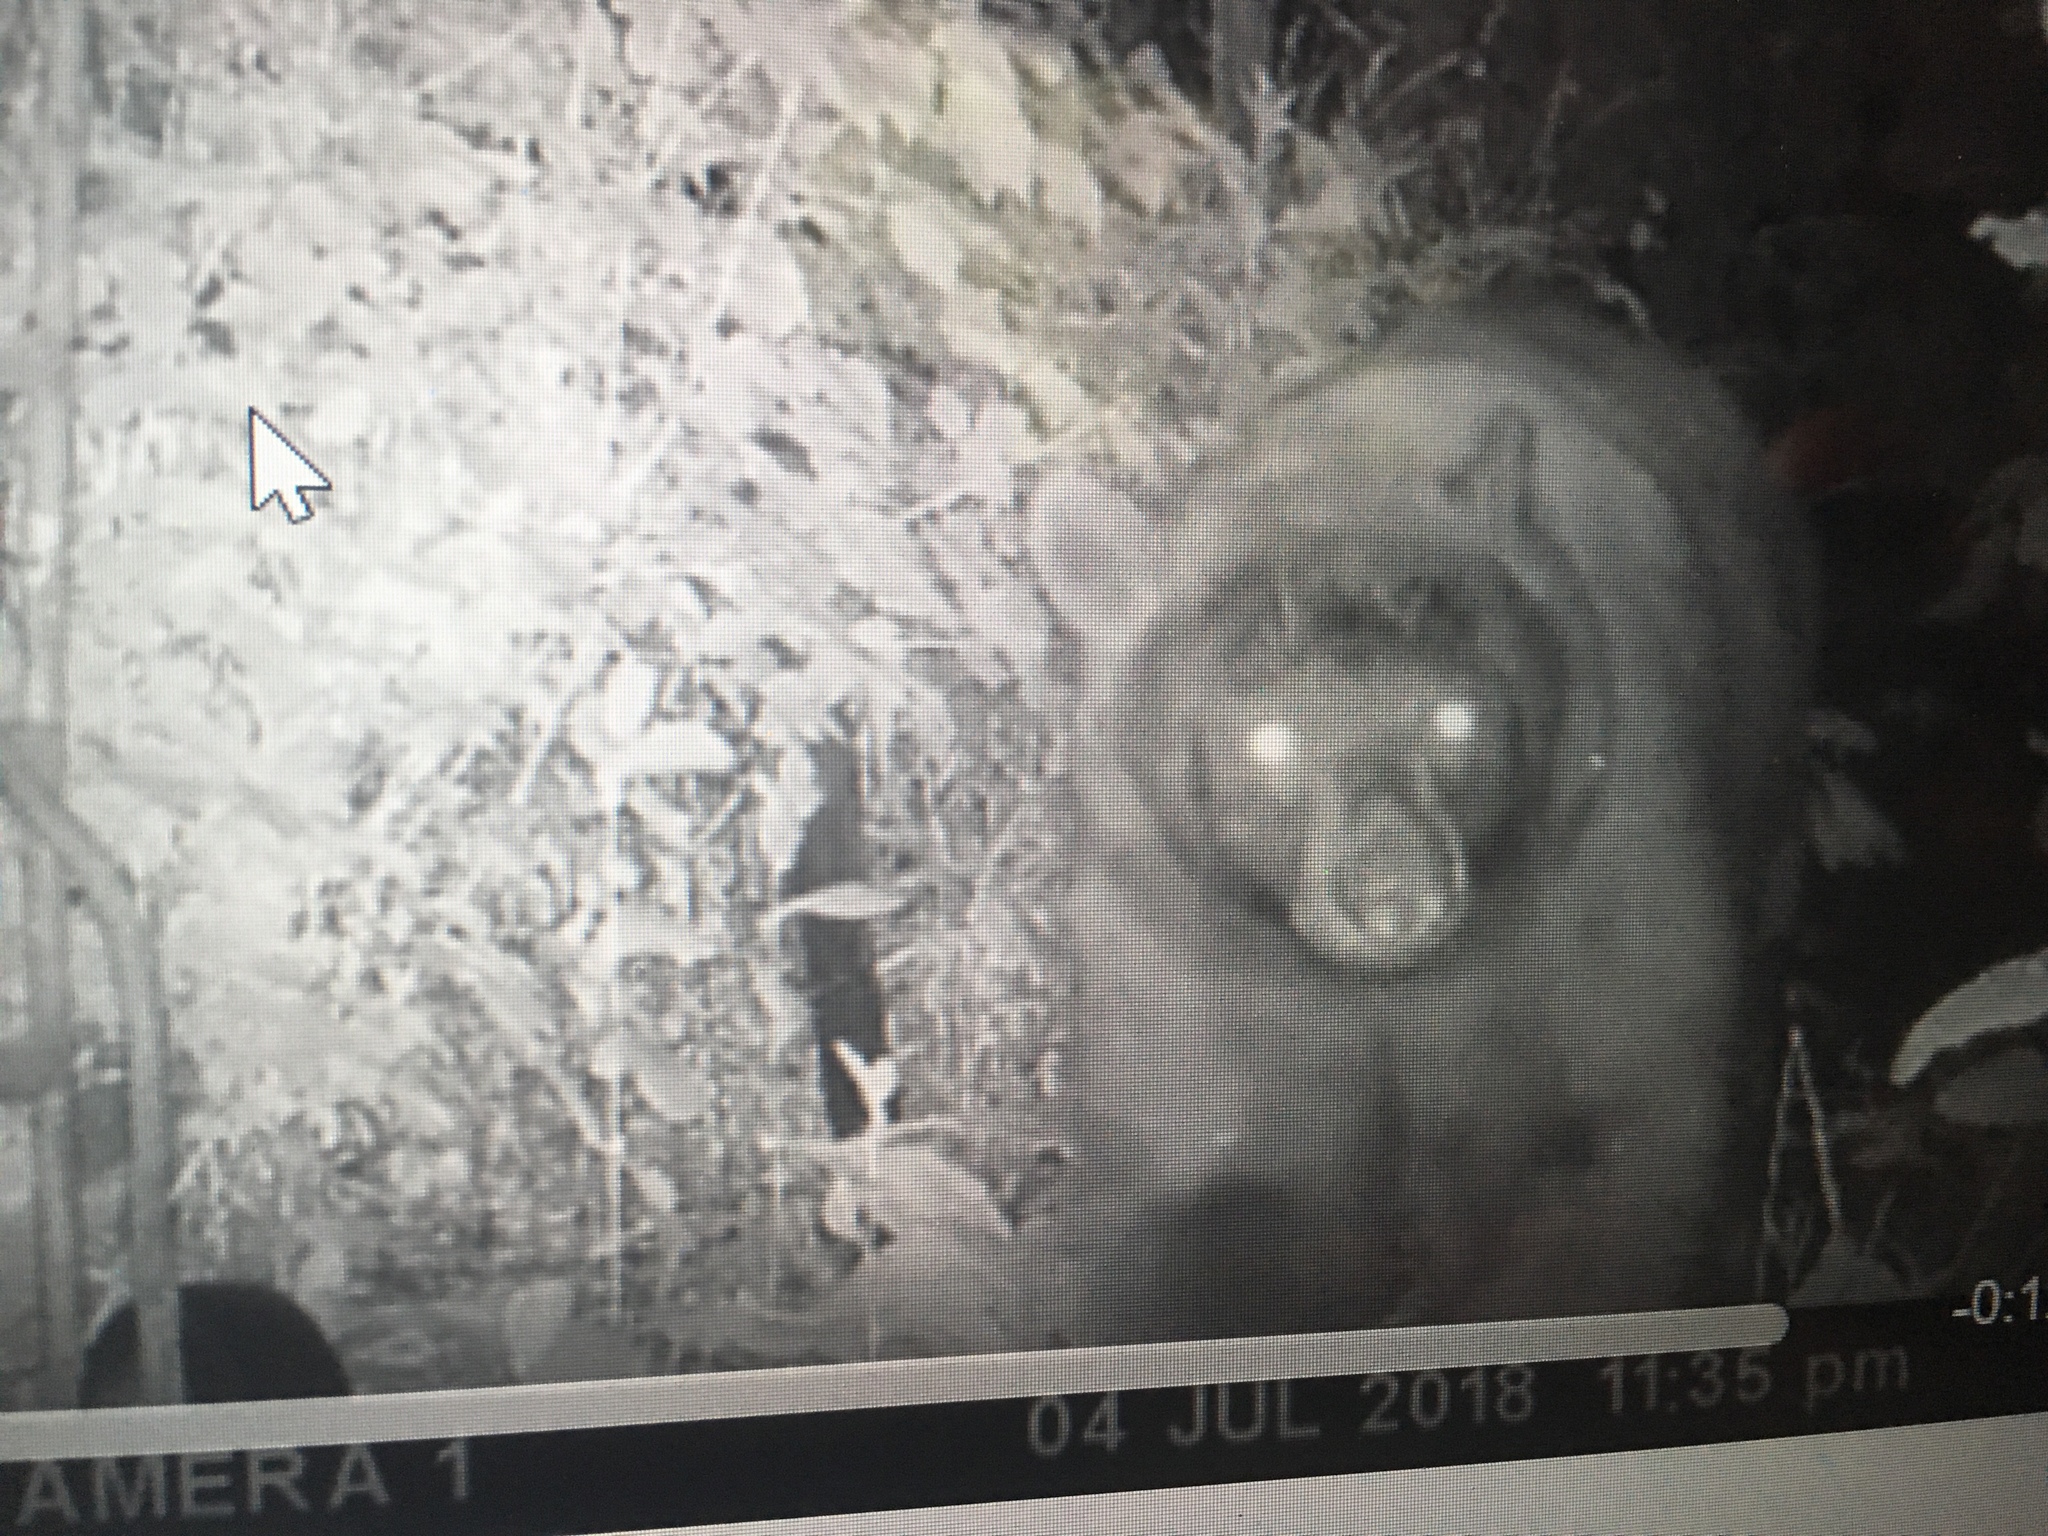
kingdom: Animalia
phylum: Chordata
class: Mammalia
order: Carnivora
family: Ursidae
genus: Ursus
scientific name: Ursus americanus
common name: American black bear
